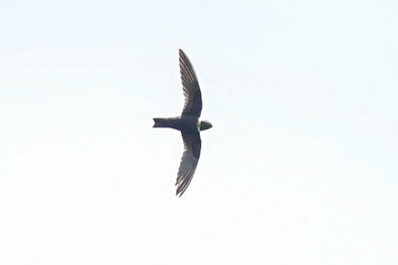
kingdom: Animalia
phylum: Chordata
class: Aves
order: Apodiformes
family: Apodidae
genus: Streptoprocne
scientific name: Streptoprocne zonaris
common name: White-collared swift
